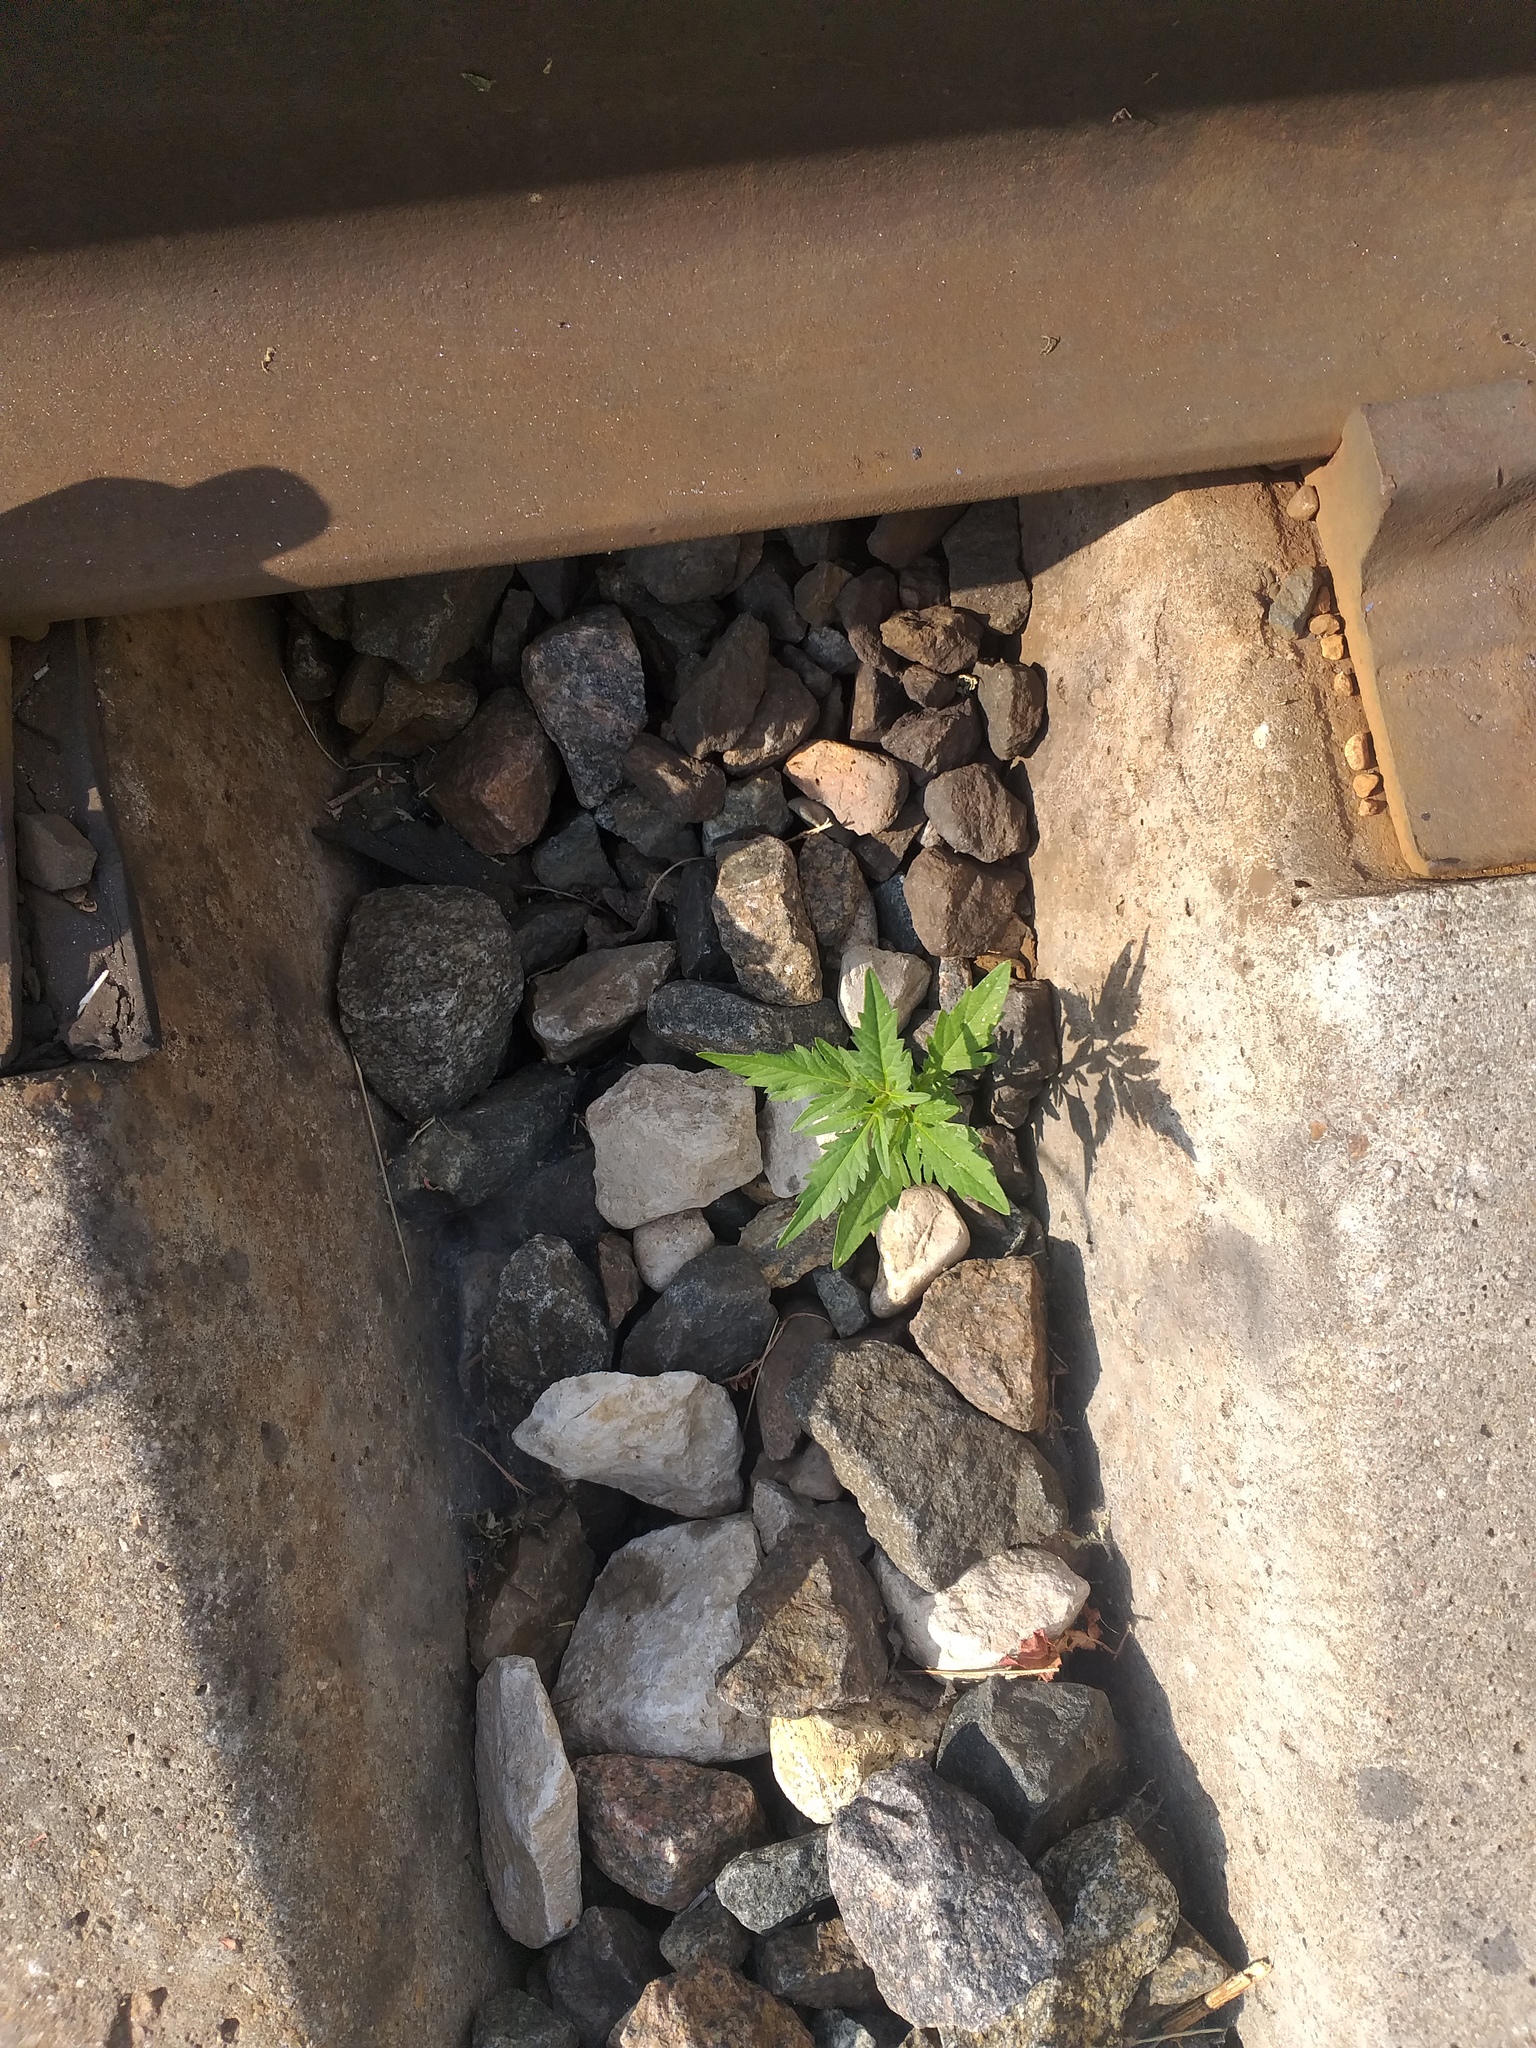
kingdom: Plantae
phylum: Tracheophyta
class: Magnoliopsida
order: Asterales
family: Asteraceae
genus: Bidens
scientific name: Bidens tripartita
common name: Trifid bur-marigold
